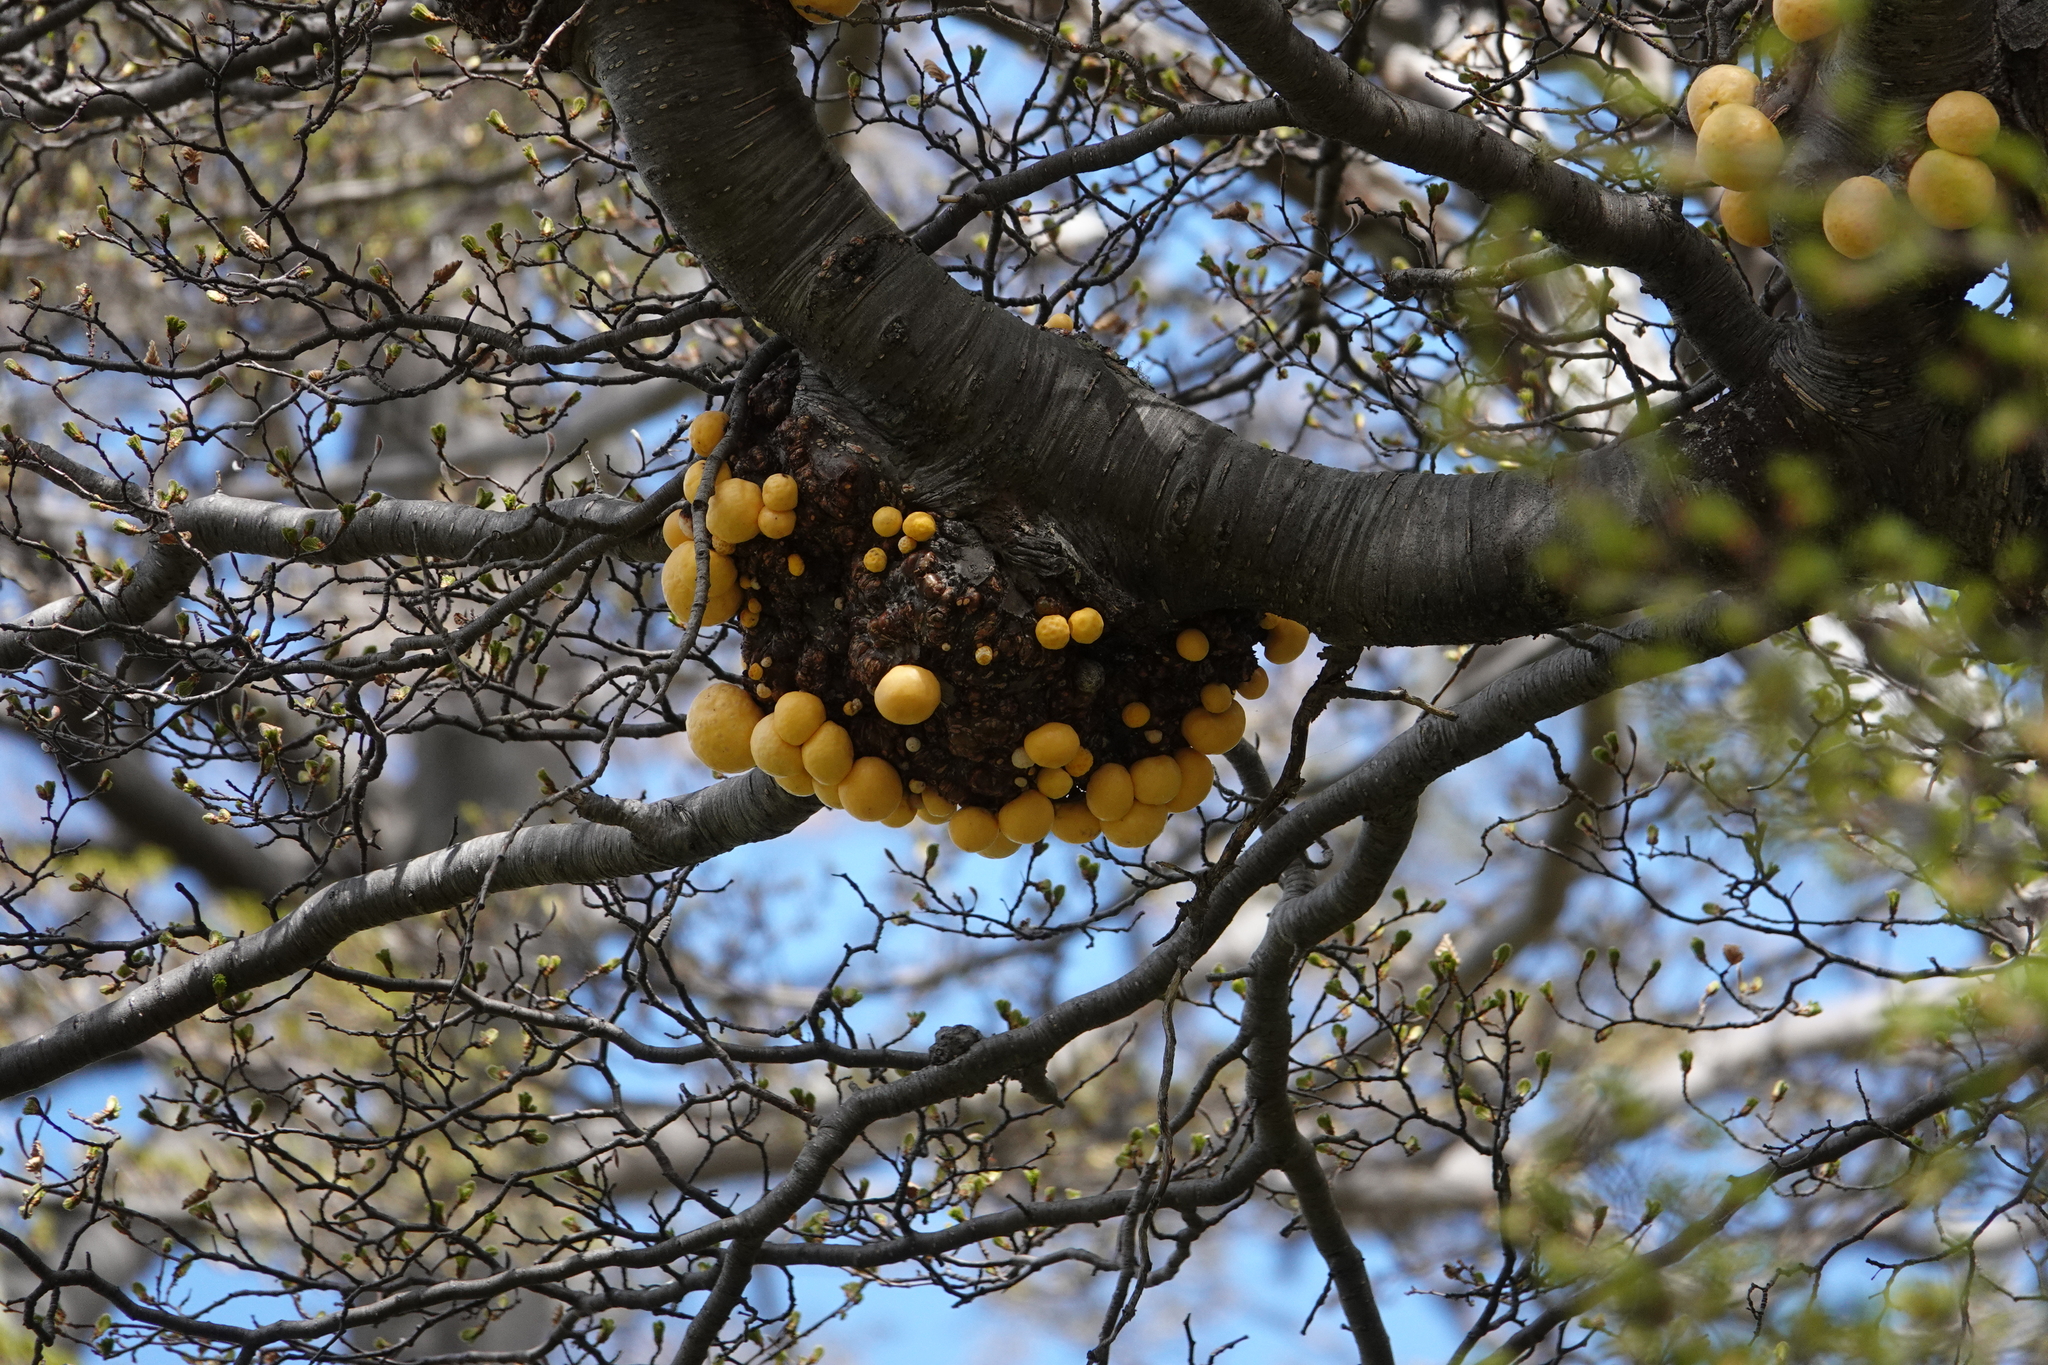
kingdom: Fungi
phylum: Ascomycota
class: Leotiomycetes
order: Cyttariales
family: Cyttariaceae
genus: Cyttaria
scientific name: Cyttaria hariotii
